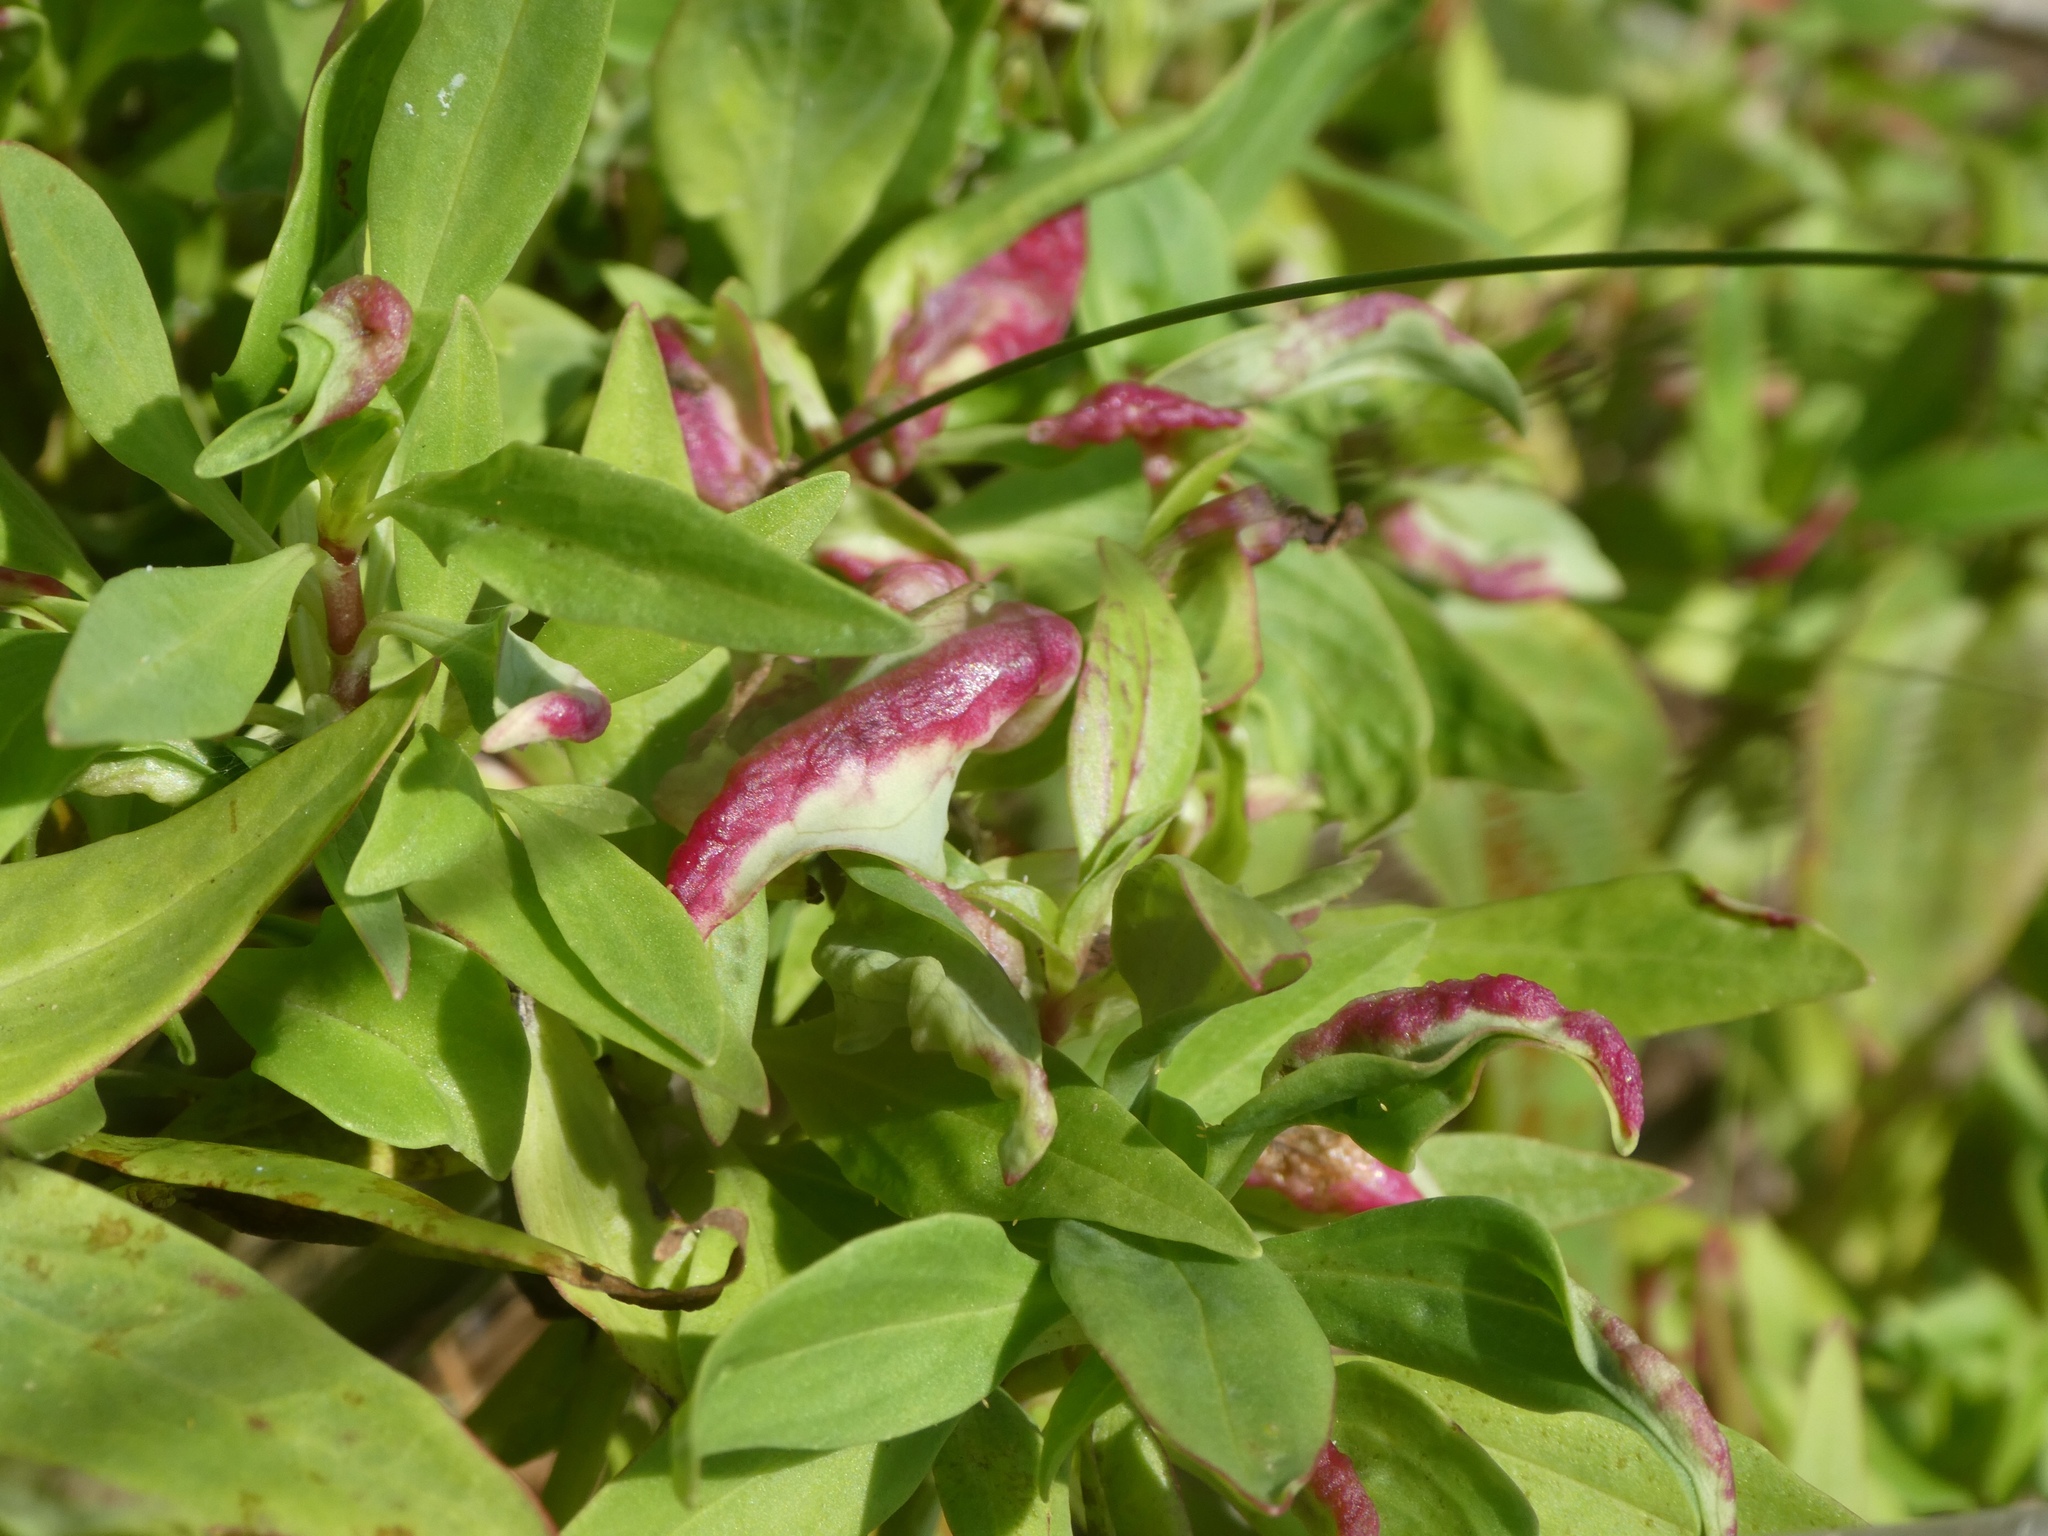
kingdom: Animalia
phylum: Arthropoda
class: Insecta
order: Hemiptera
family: Triozidae
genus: Trioza
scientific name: Trioza centranthi
